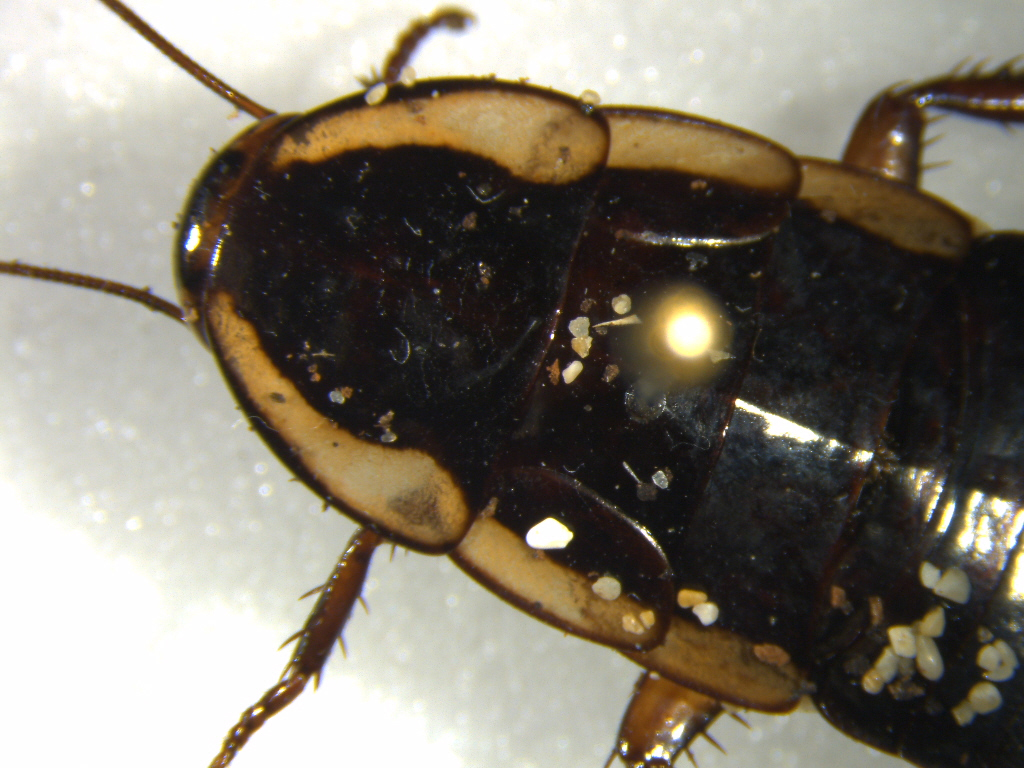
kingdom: Animalia
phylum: Arthropoda
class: Insecta
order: Blattodea
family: Blattidae
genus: Drymaplaneta
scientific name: Drymaplaneta semivitta
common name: Gisborne cockroach
